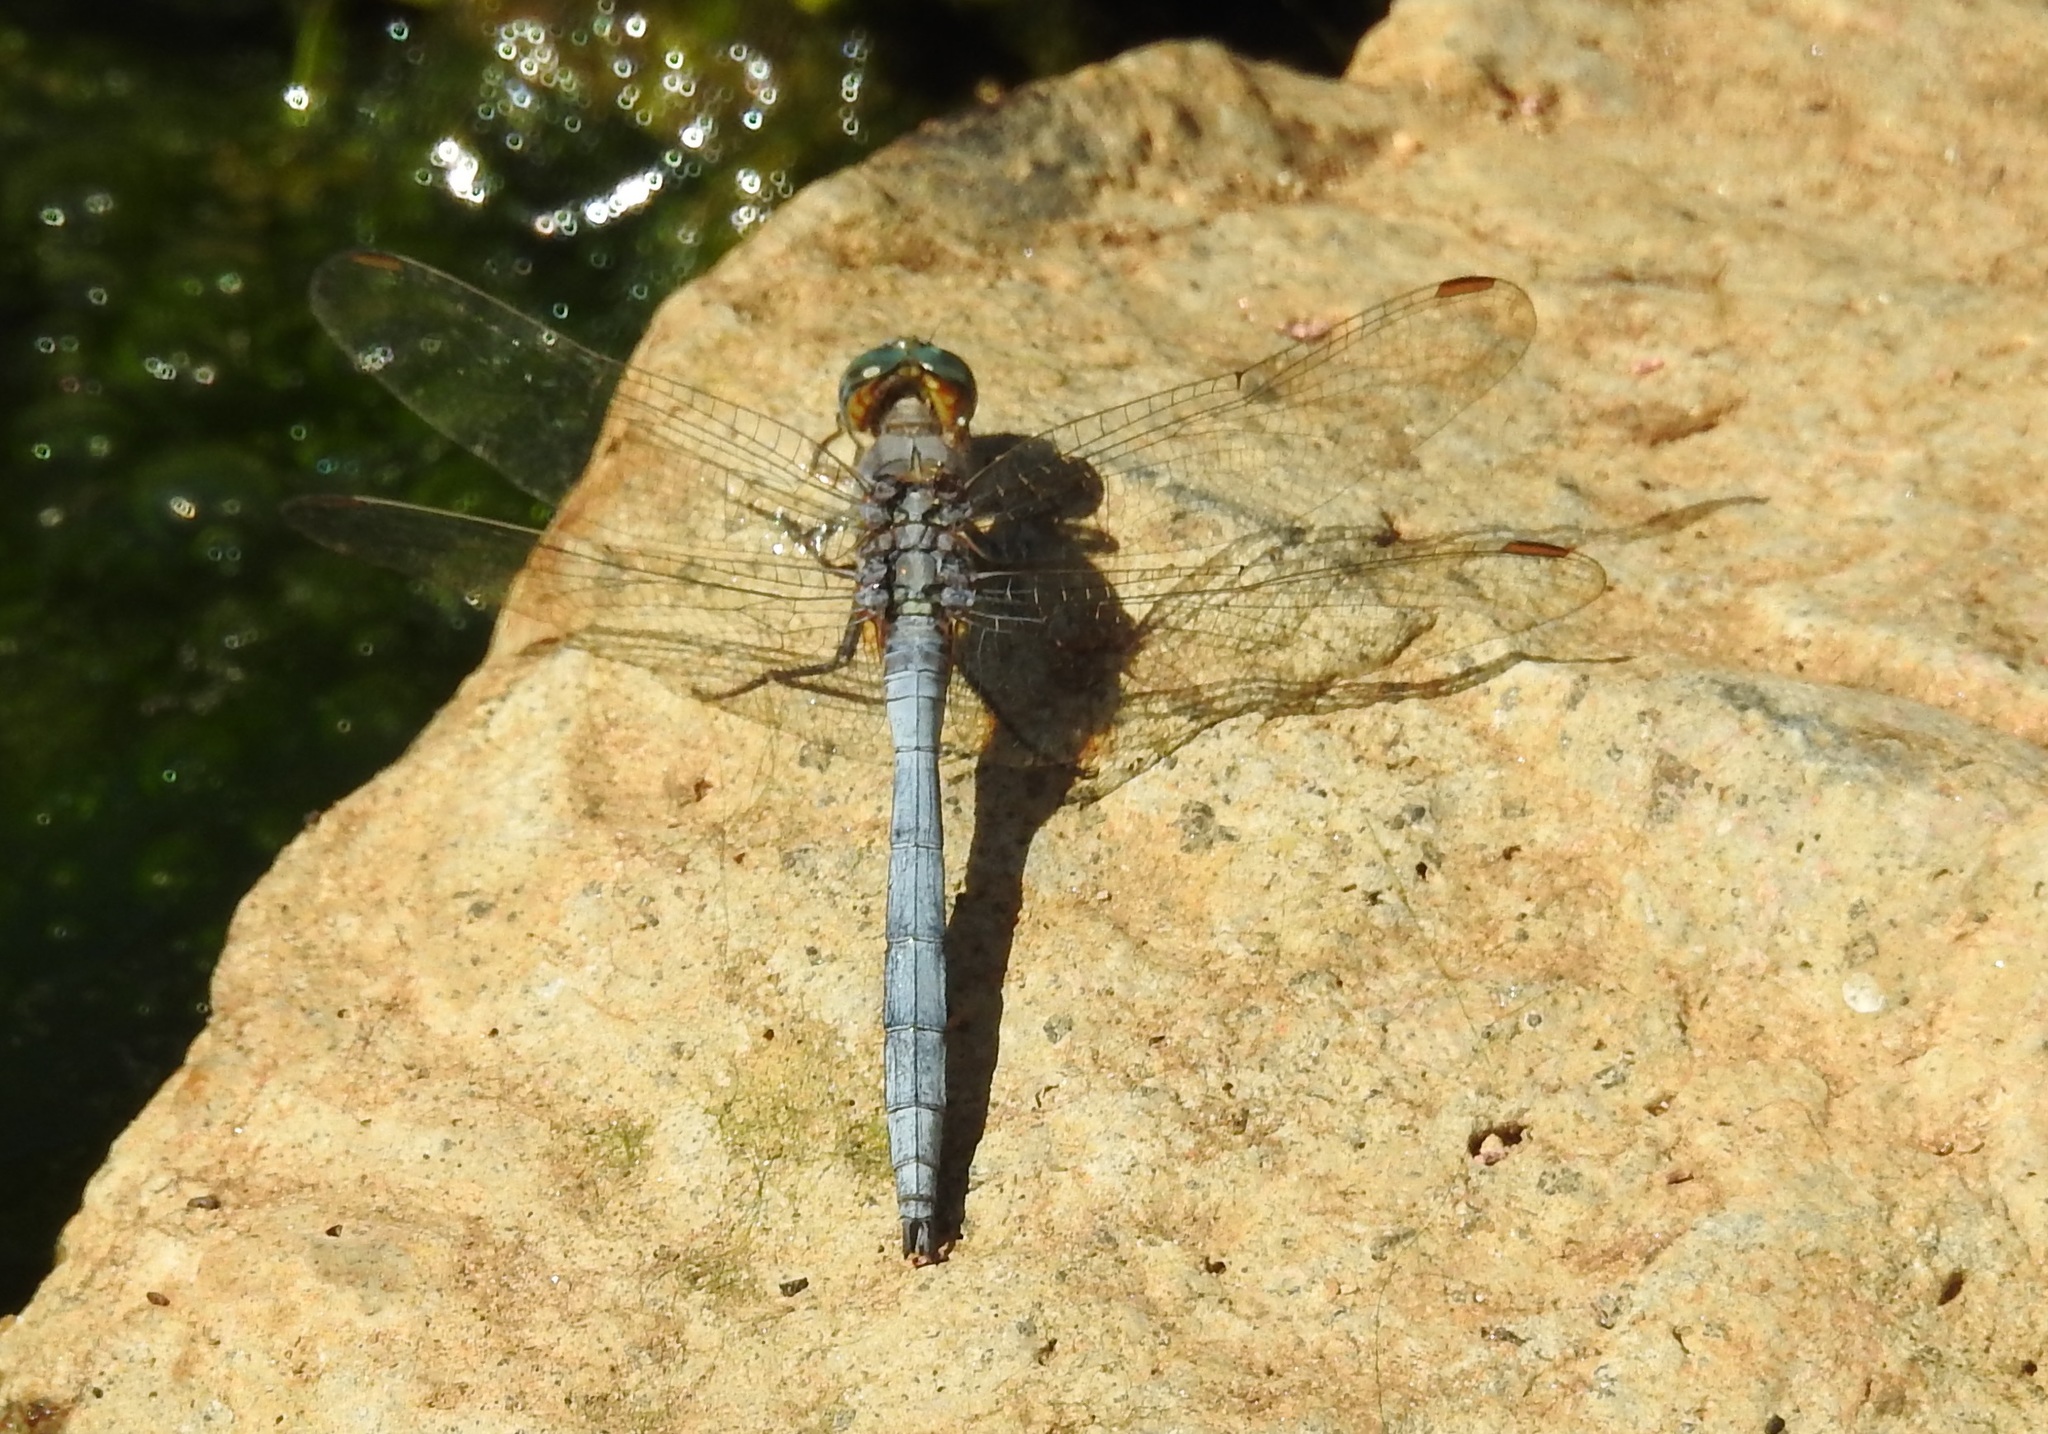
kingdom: Animalia
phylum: Arthropoda
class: Insecta
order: Odonata
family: Libellulidae
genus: Orthetrum
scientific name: Orthetrum chrysostigma
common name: Epaulet skimmer
